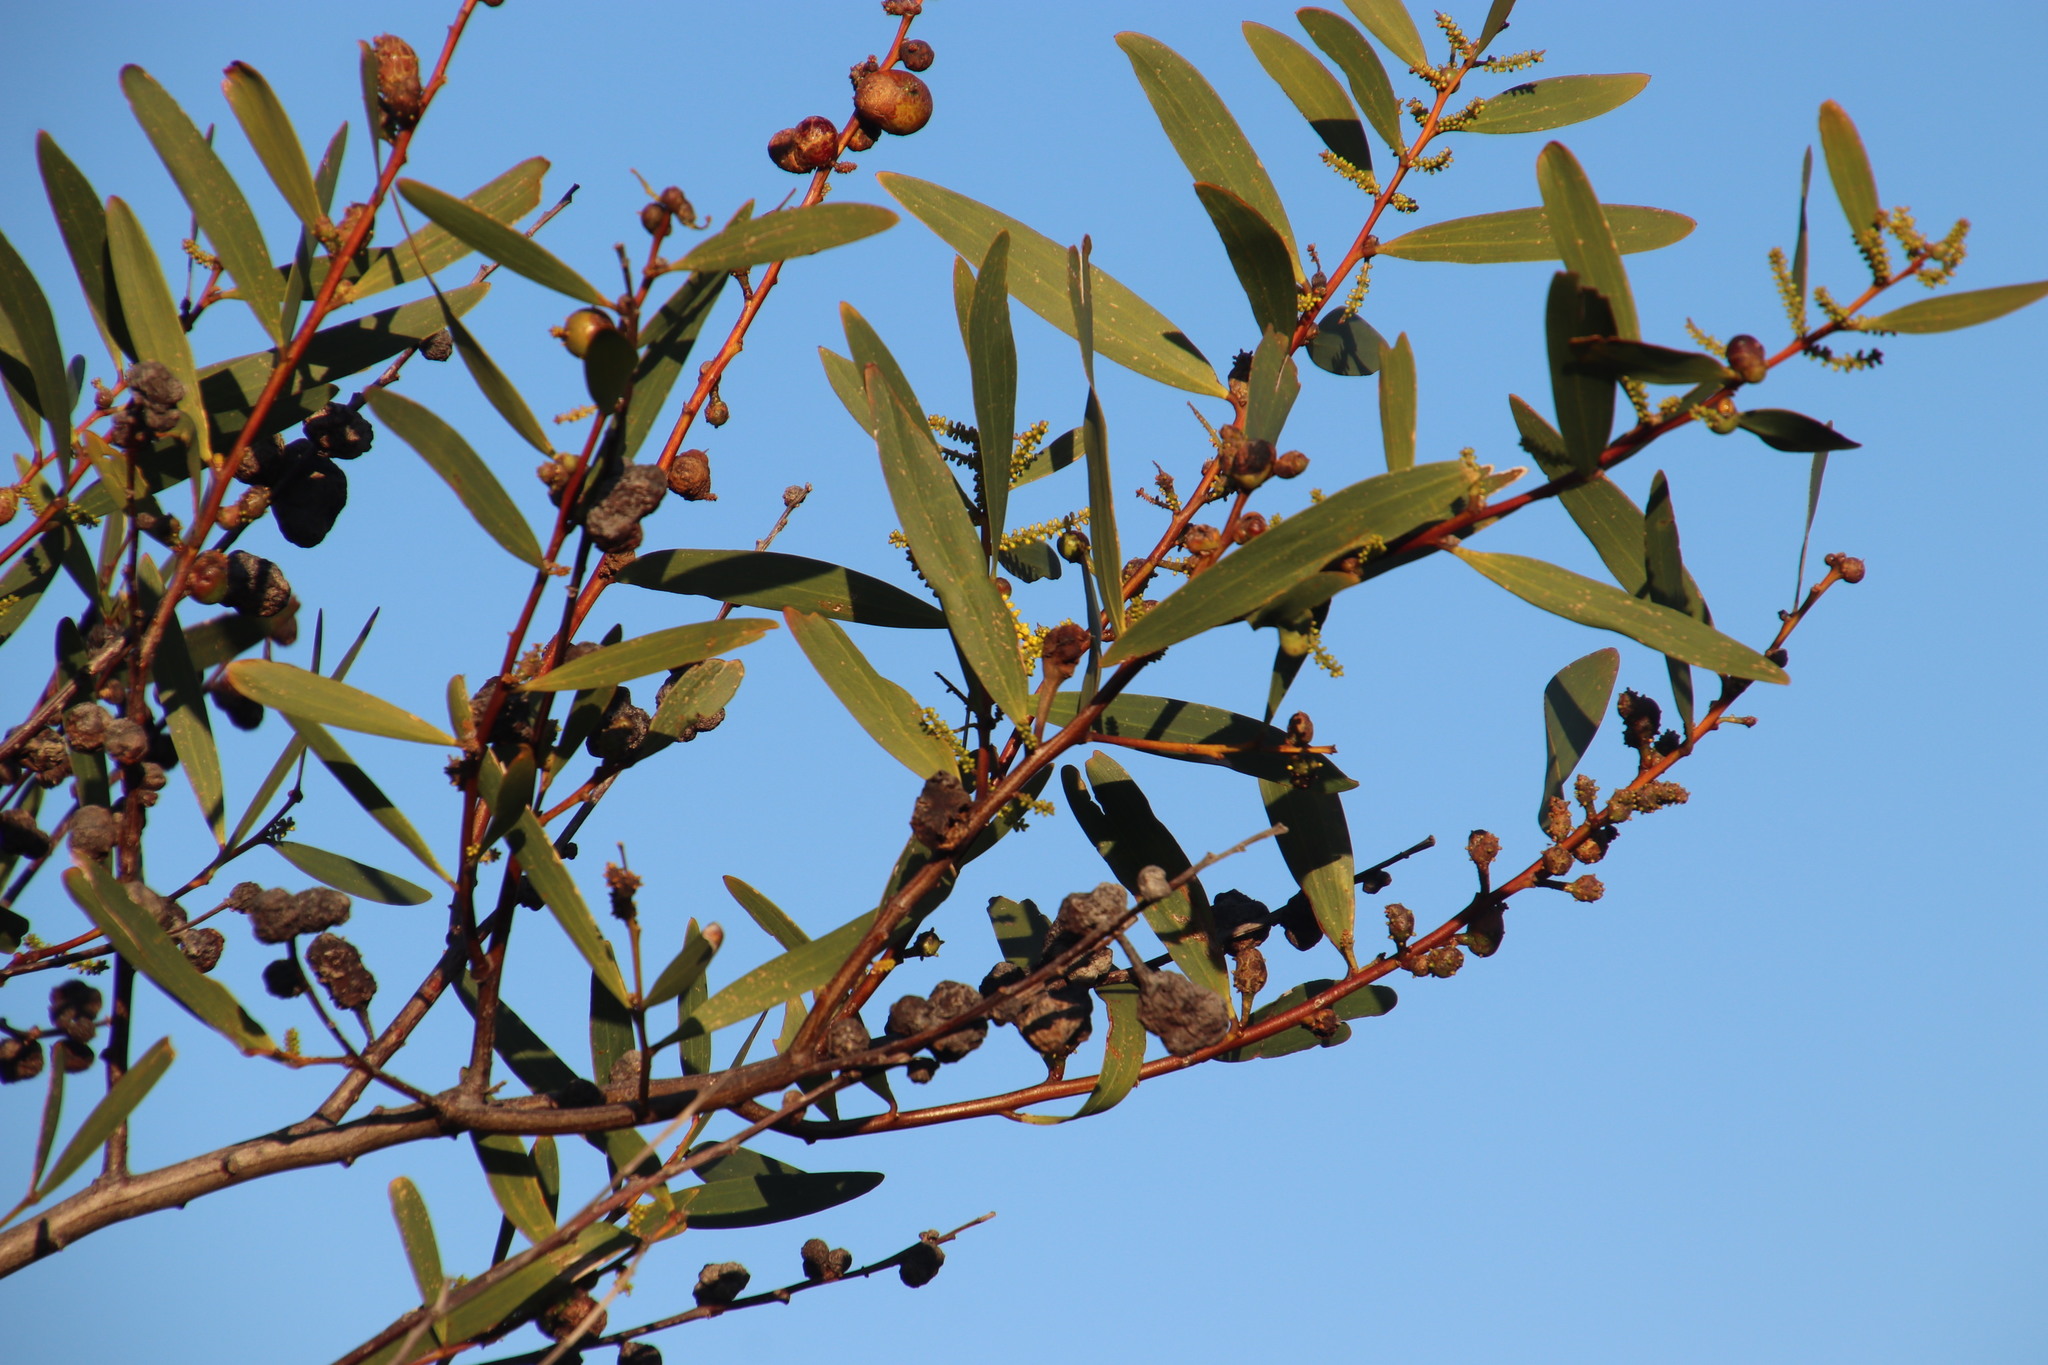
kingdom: Plantae
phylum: Tracheophyta
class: Magnoliopsida
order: Fabales
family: Fabaceae
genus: Acacia
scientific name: Acacia longifolia
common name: Sydney golden wattle
